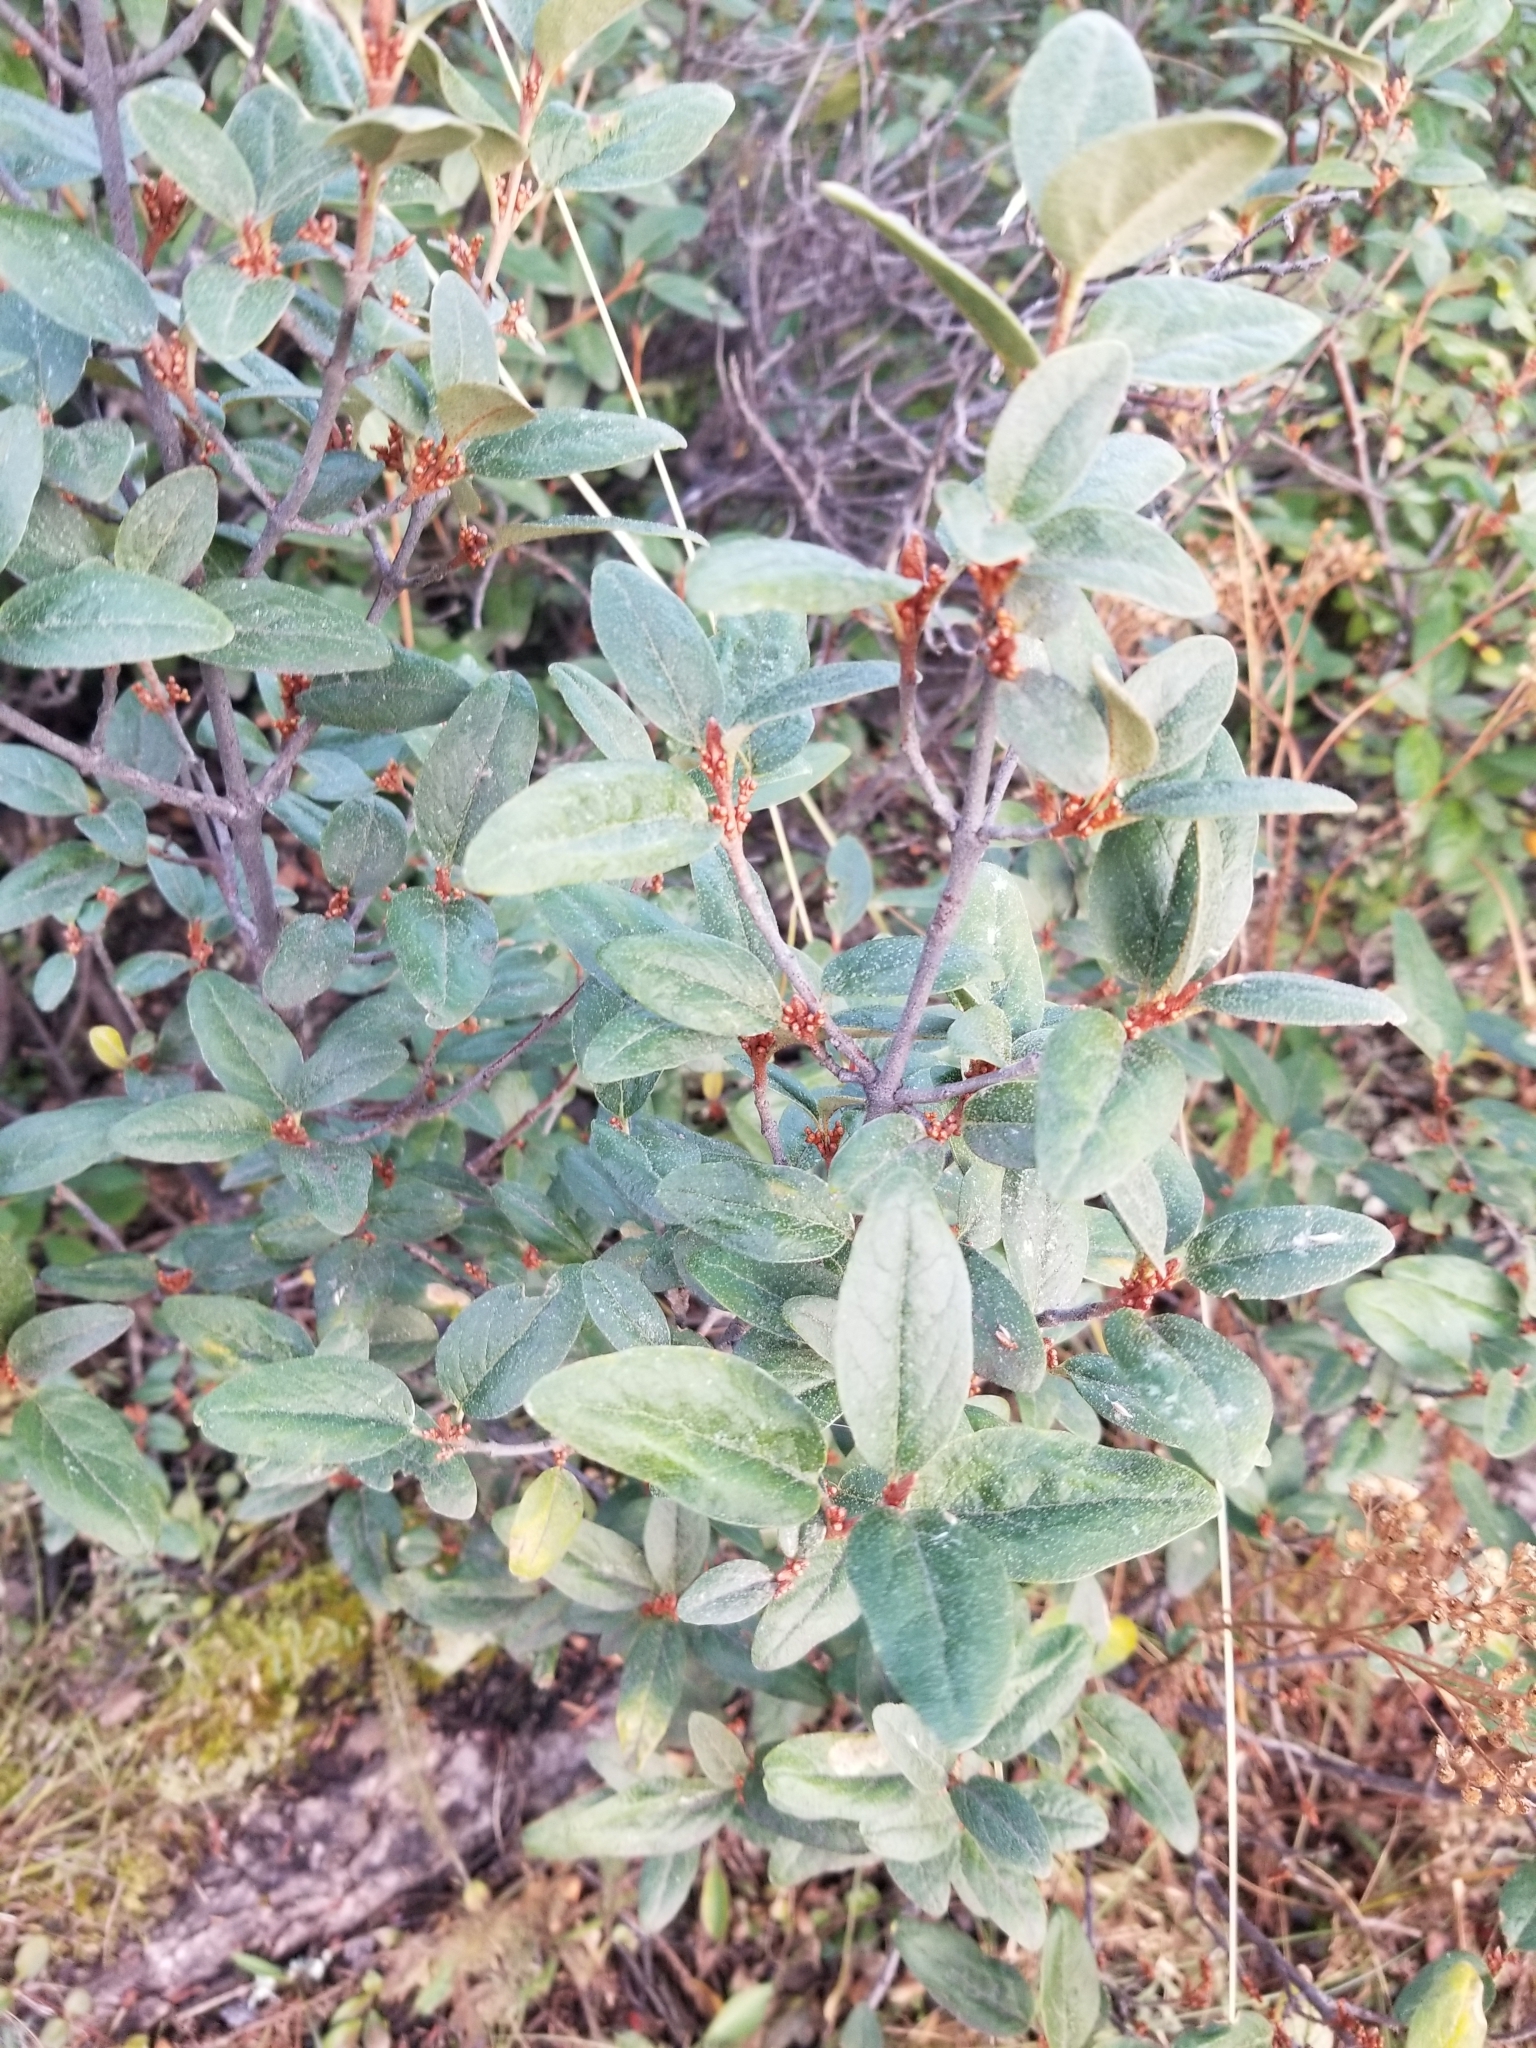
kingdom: Plantae
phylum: Tracheophyta
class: Magnoliopsida
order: Rosales
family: Elaeagnaceae
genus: Shepherdia
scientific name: Shepherdia canadensis
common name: Soapberry
